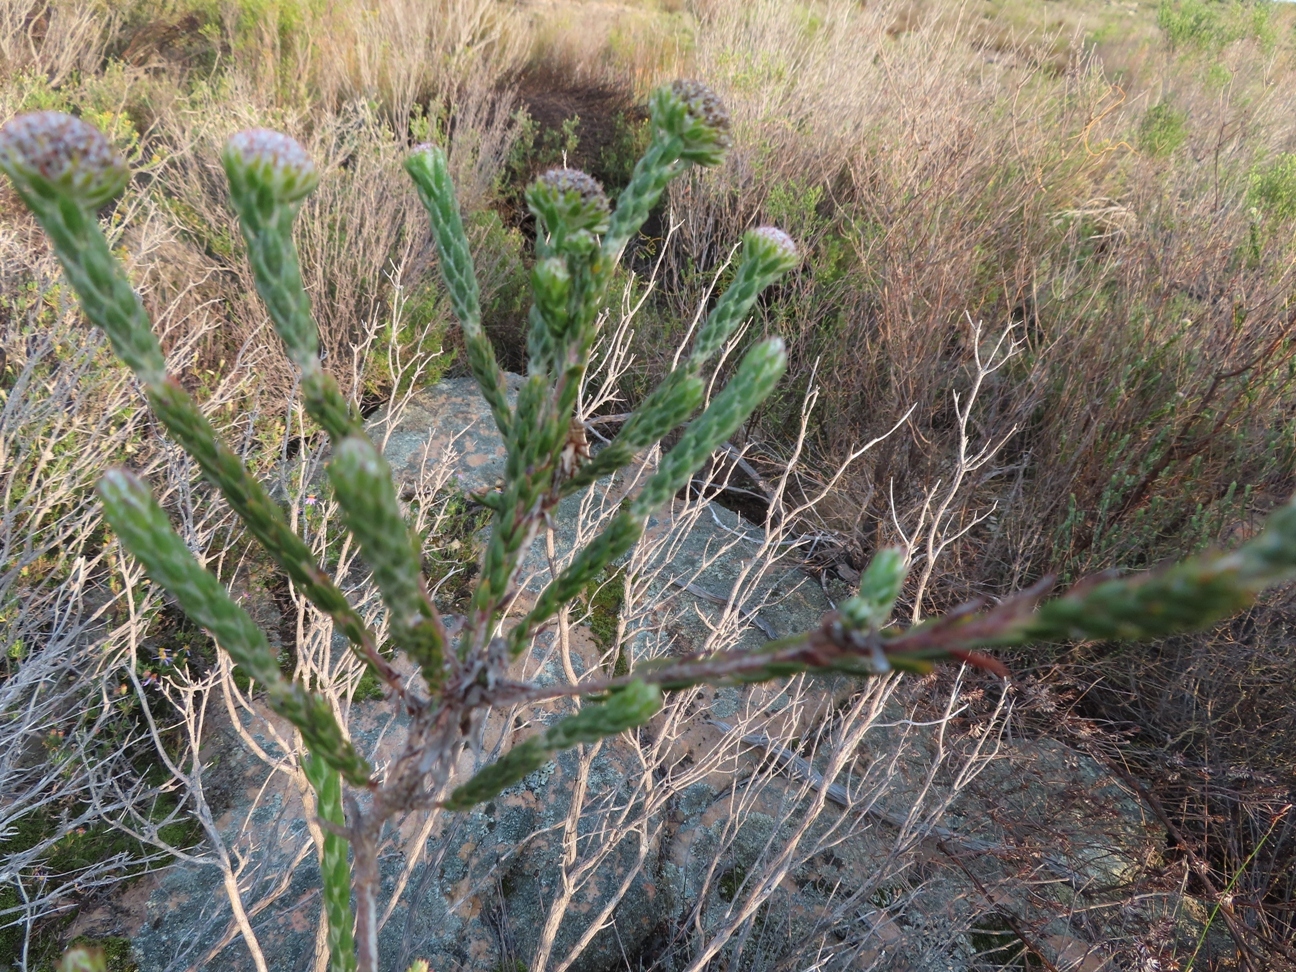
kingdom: Plantae
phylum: Tracheophyta
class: Magnoliopsida
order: Asterales
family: Asteraceae
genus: Stoebe
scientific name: Stoebe aethiopica
